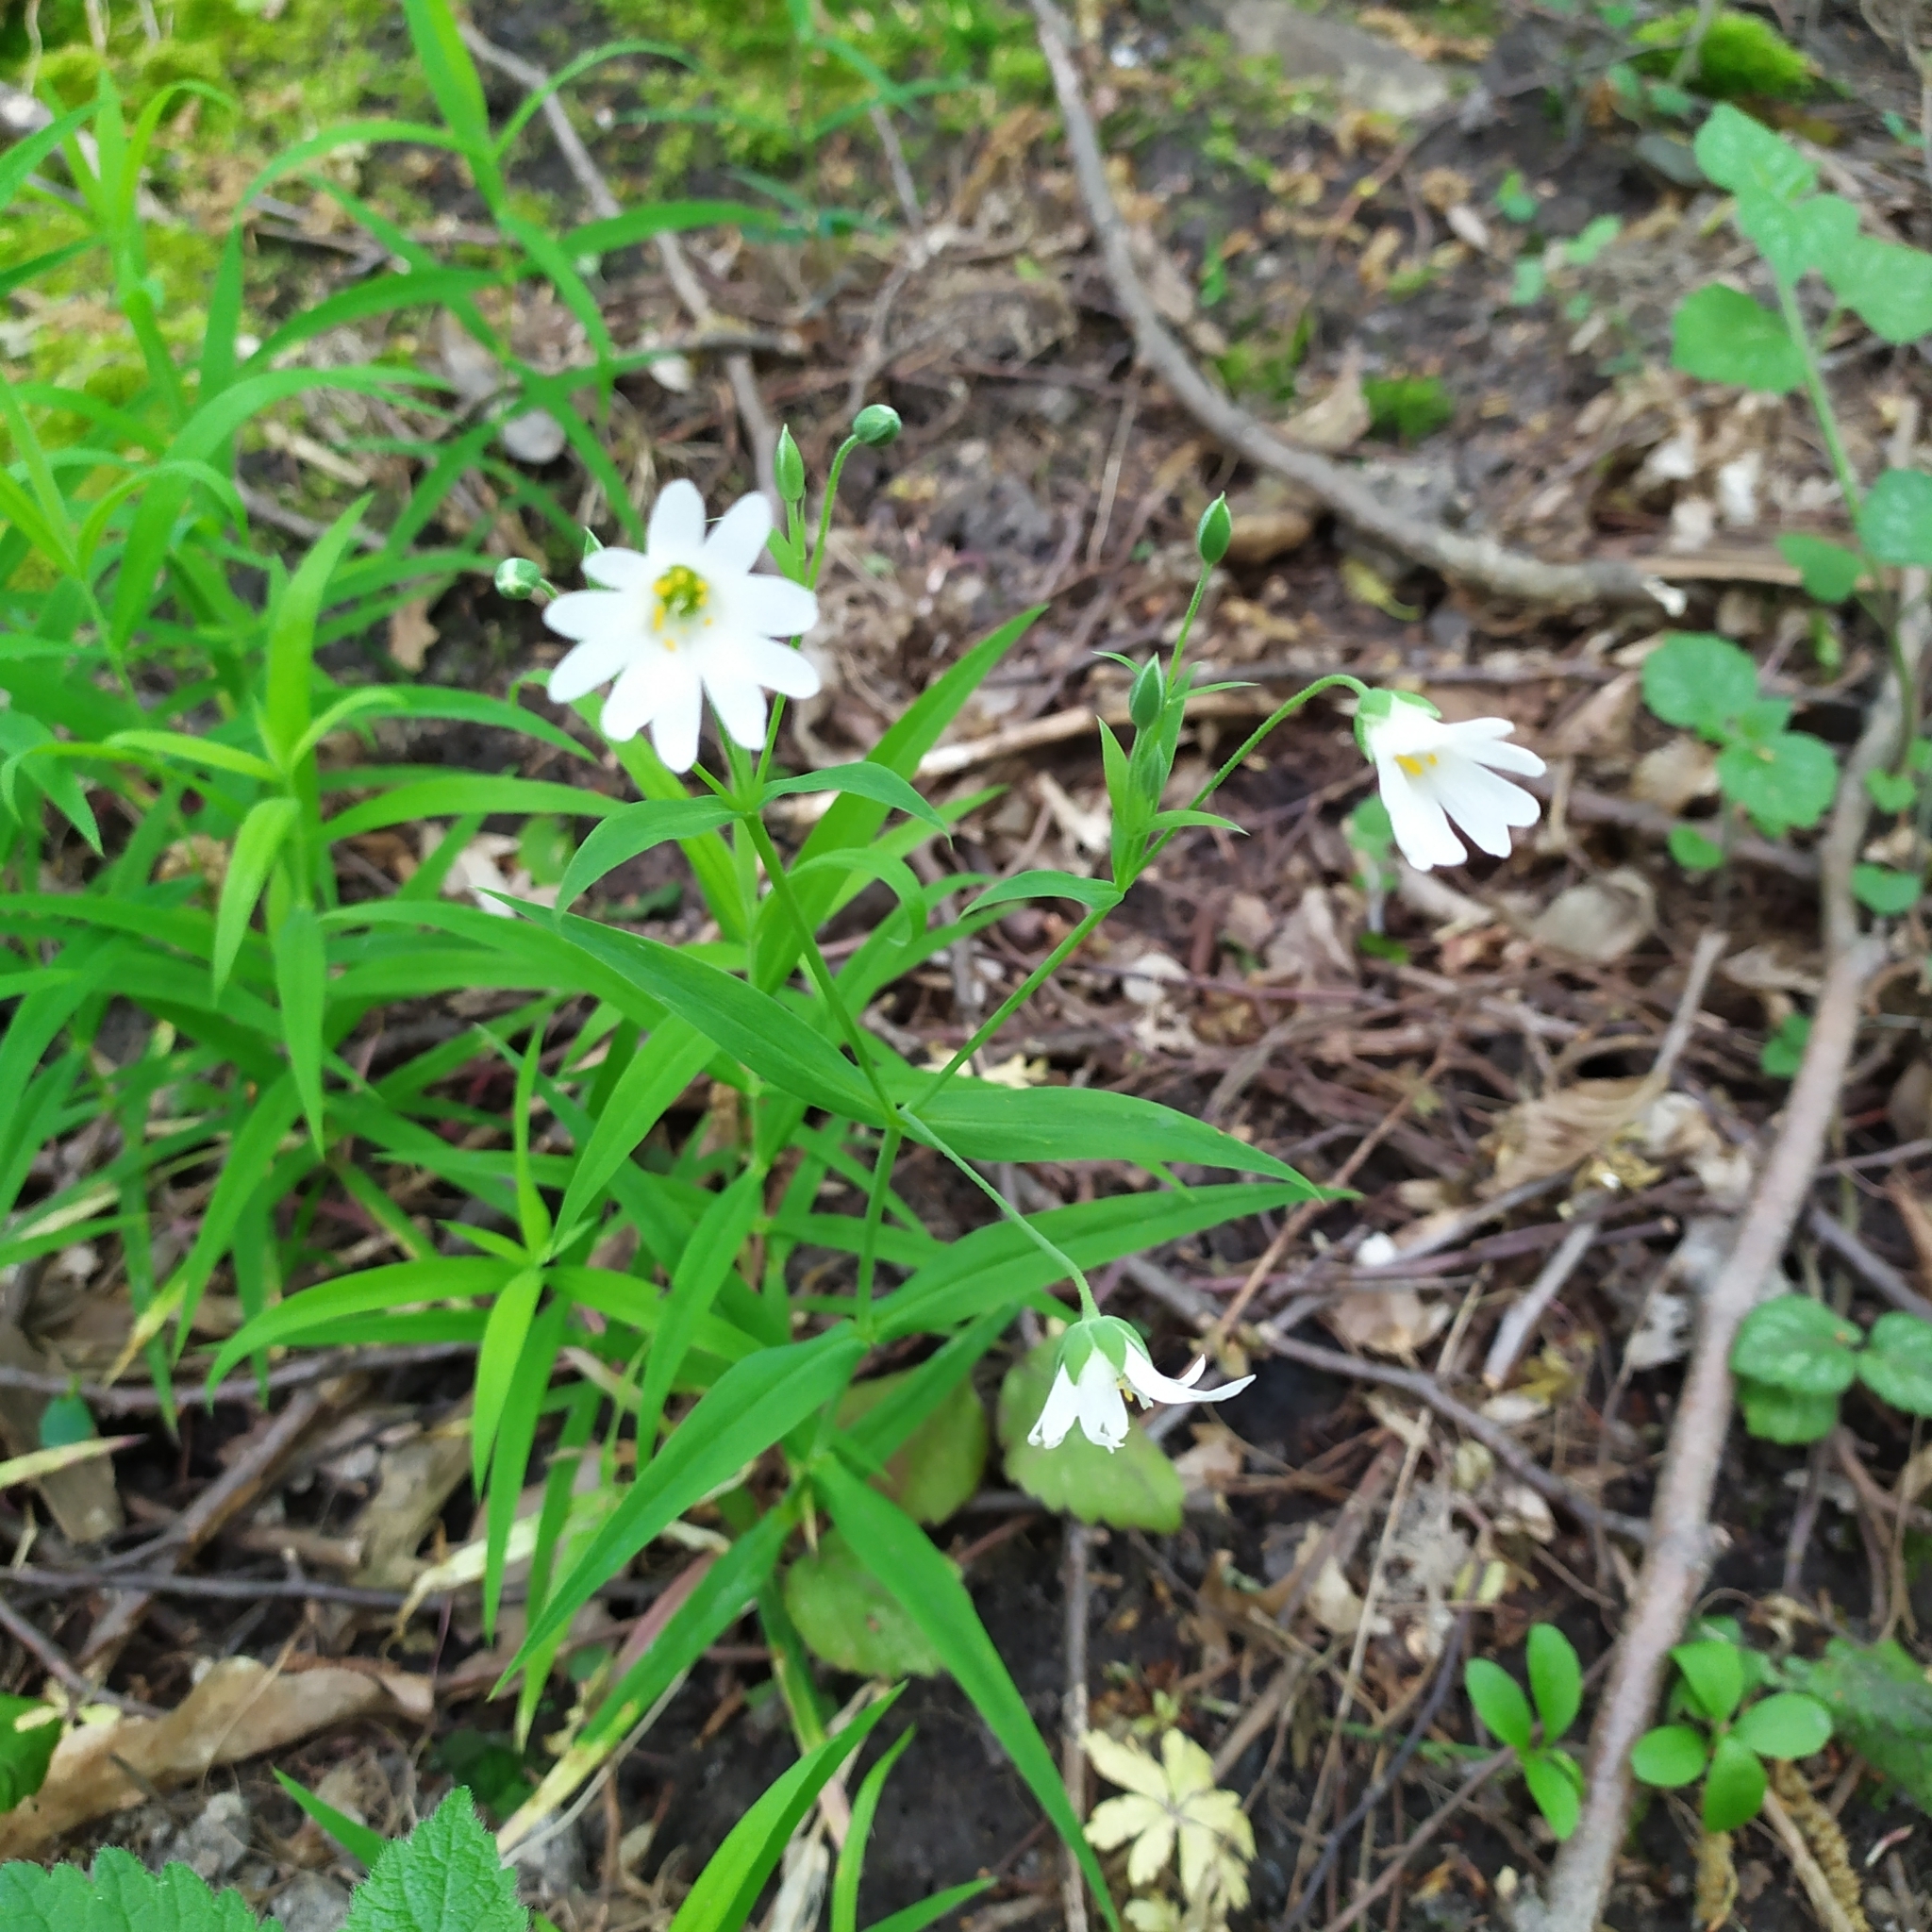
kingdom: Plantae
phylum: Tracheophyta
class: Magnoliopsida
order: Caryophyllales
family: Caryophyllaceae
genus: Rabelera
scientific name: Rabelera holostea
